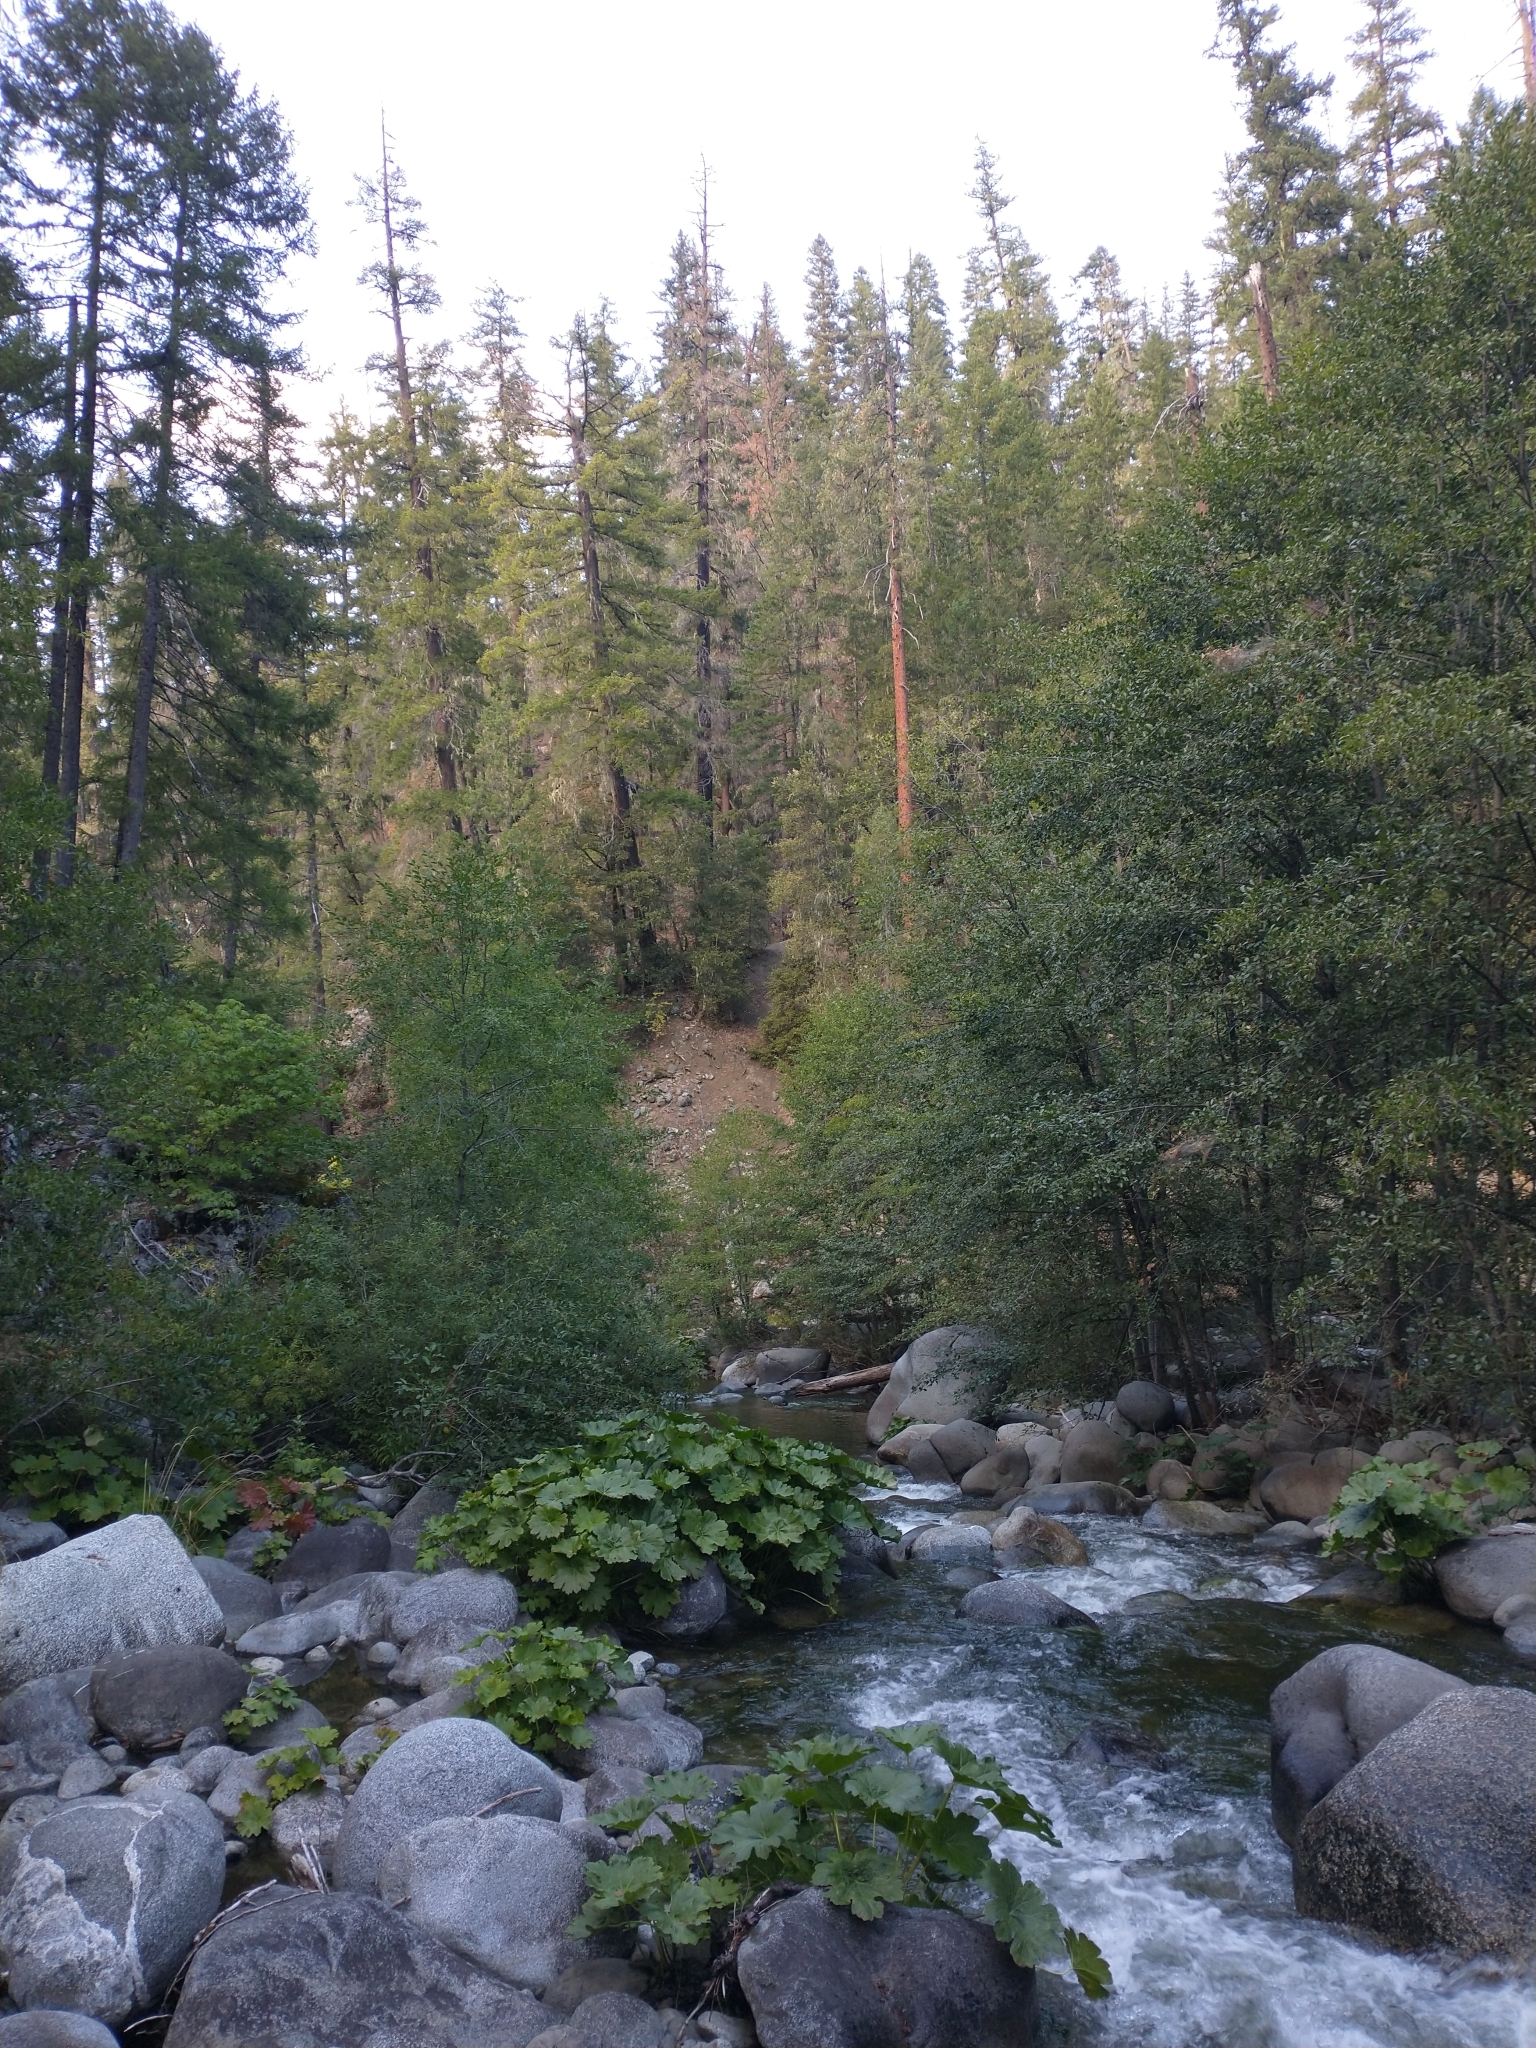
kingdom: Plantae
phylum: Tracheophyta
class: Magnoliopsida
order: Saxifragales
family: Saxifragaceae
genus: Darmera
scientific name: Darmera peltata
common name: Indian-rhubarb
